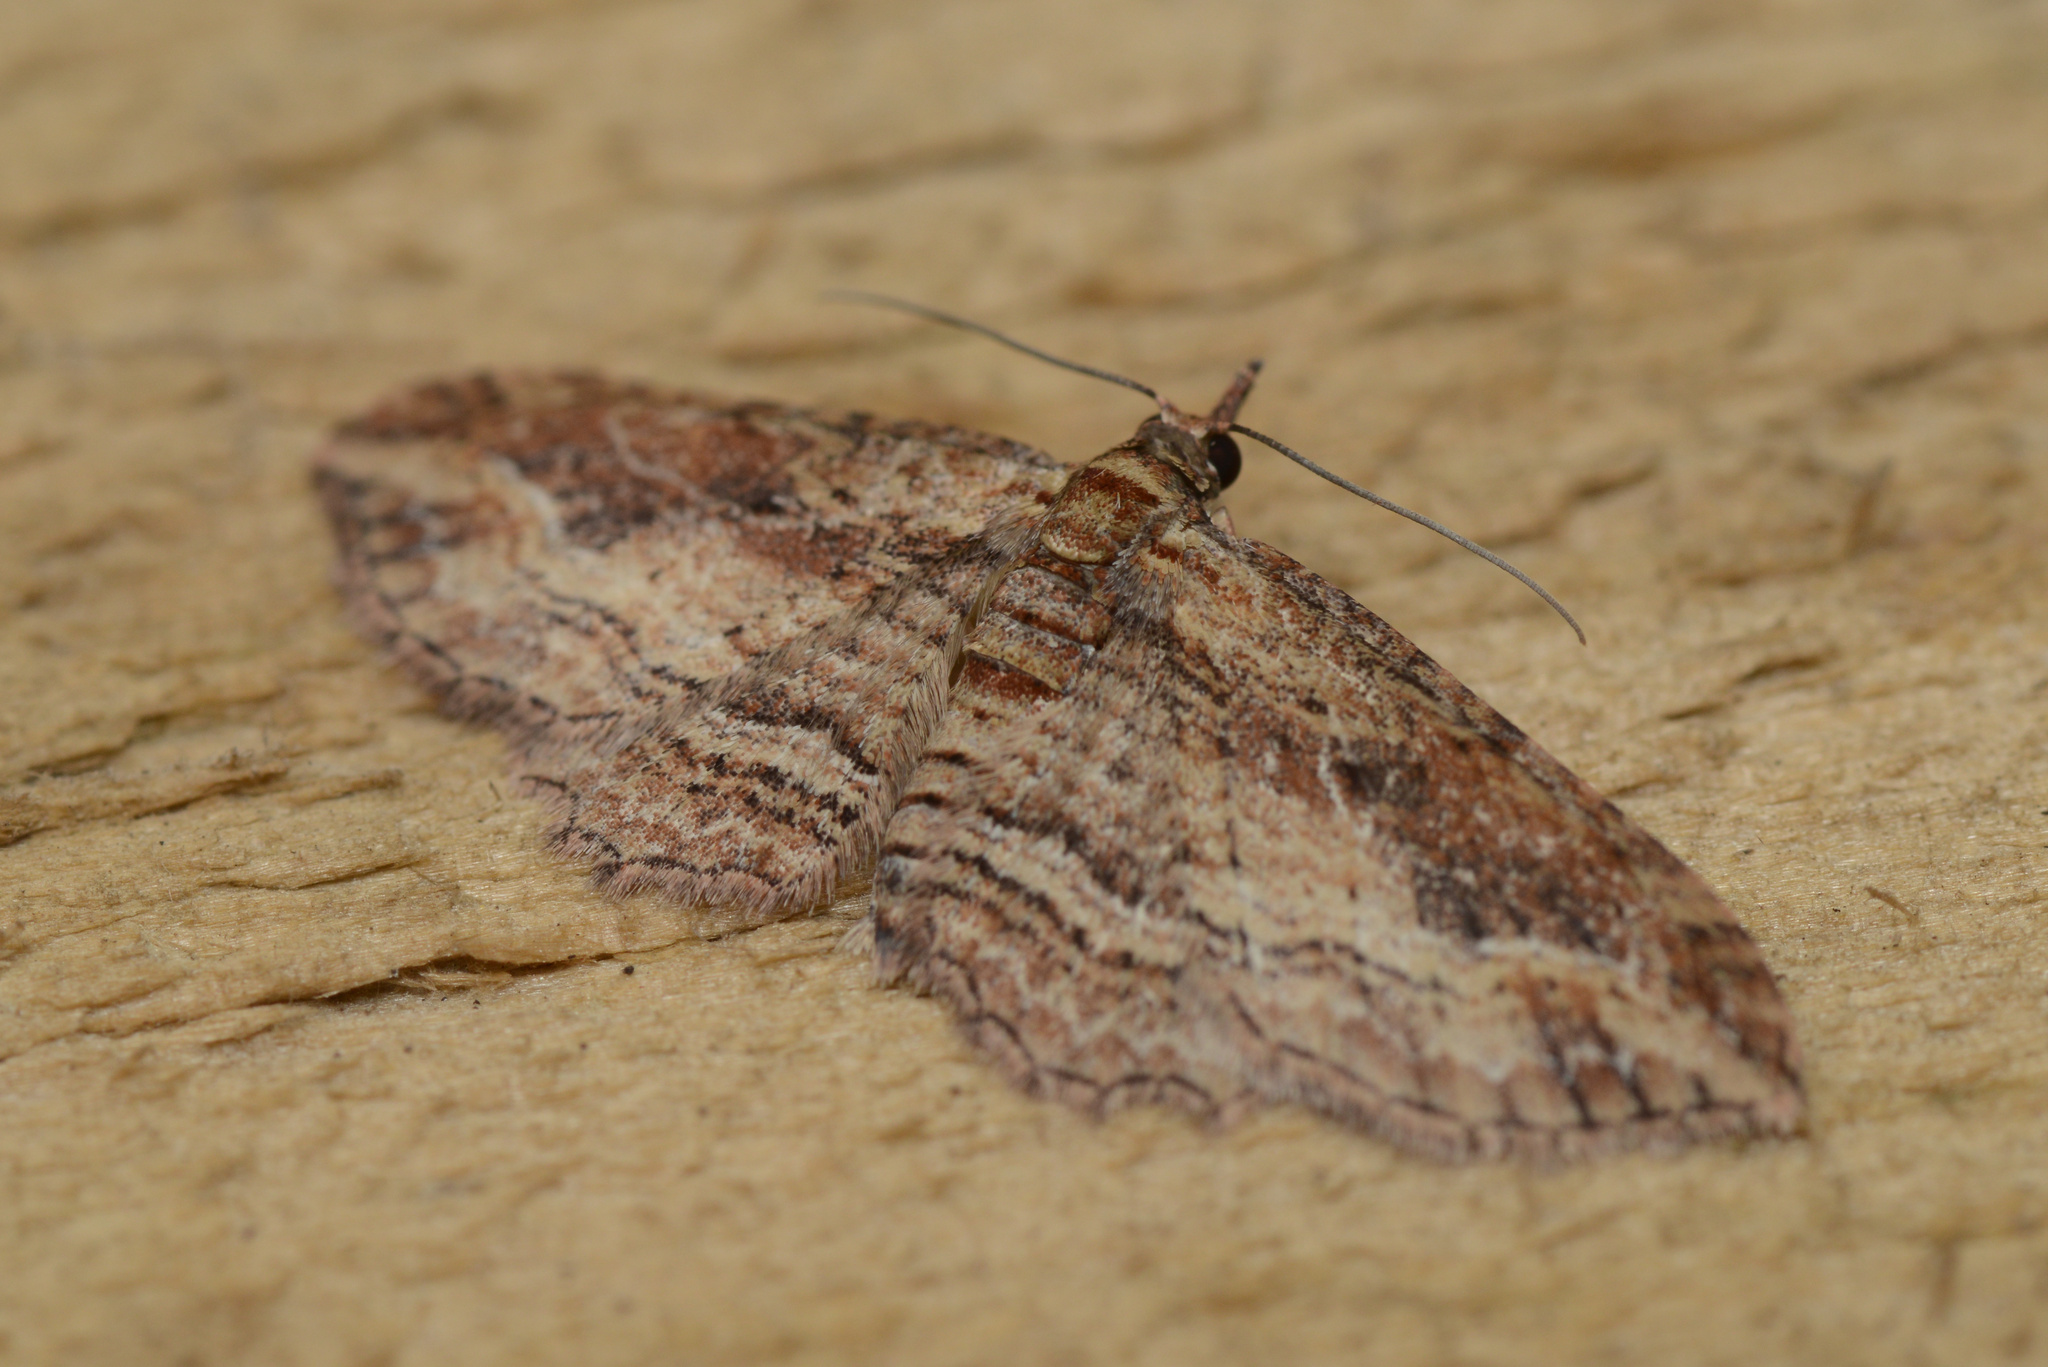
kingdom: Animalia
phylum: Arthropoda
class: Insecta
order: Lepidoptera
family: Geometridae
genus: Chloroclystis
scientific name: Chloroclystis filata
